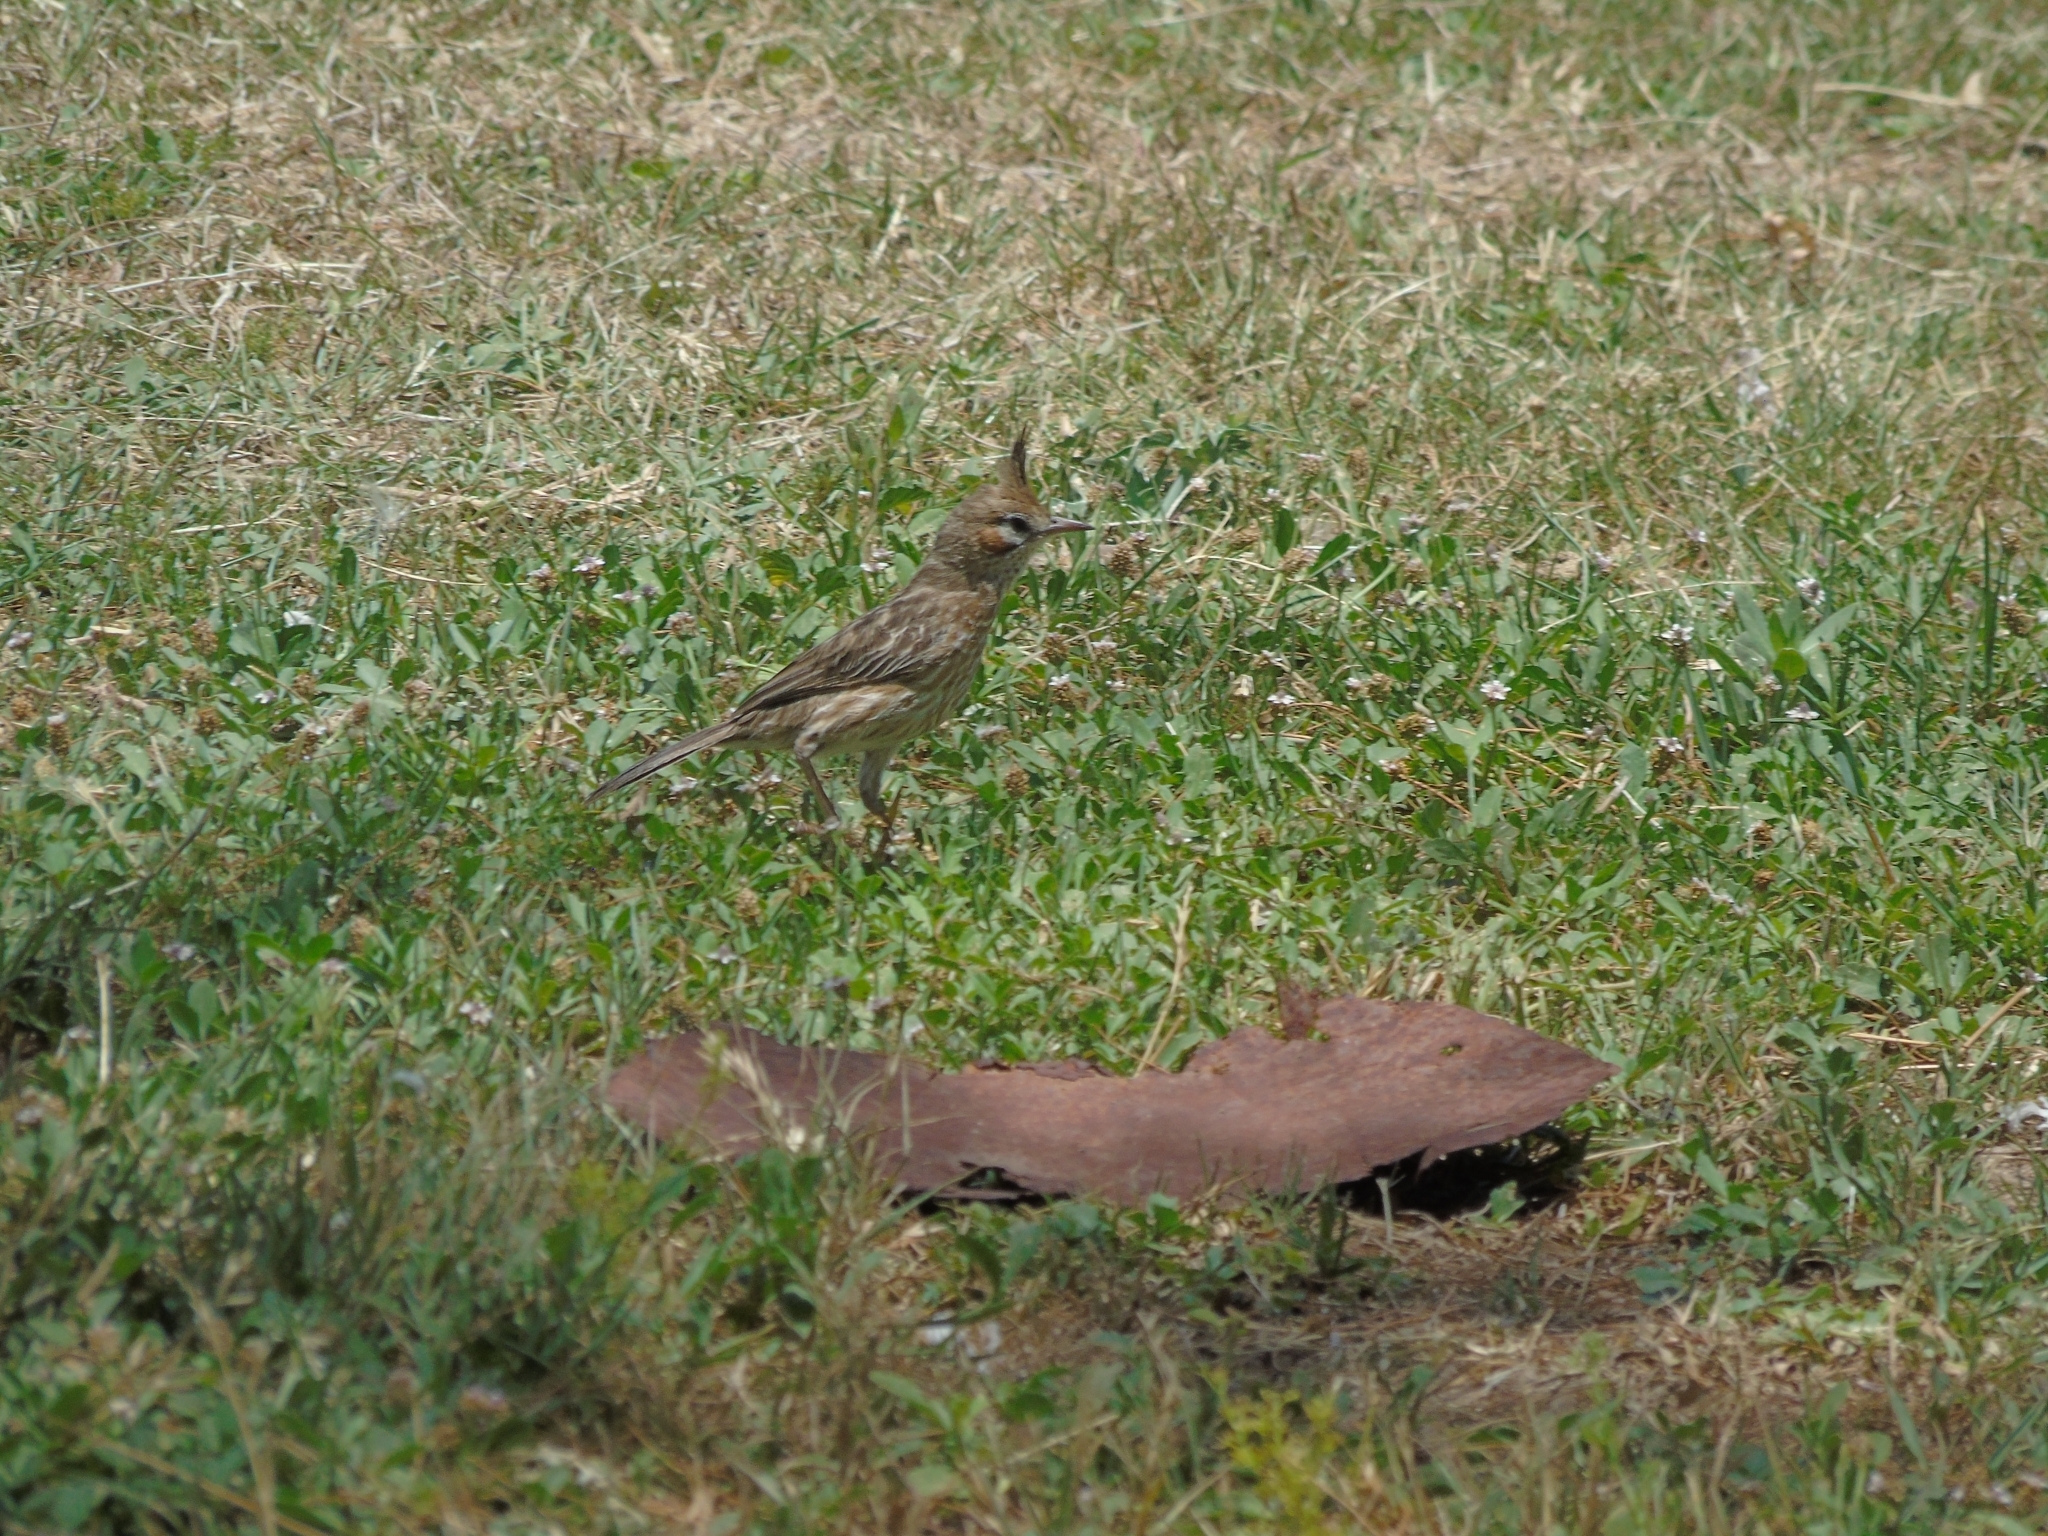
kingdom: Animalia
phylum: Chordata
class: Aves
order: Passeriformes
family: Furnariidae
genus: Coryphistera
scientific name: Coryphistera alaudina
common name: Lark-like brushrunner
